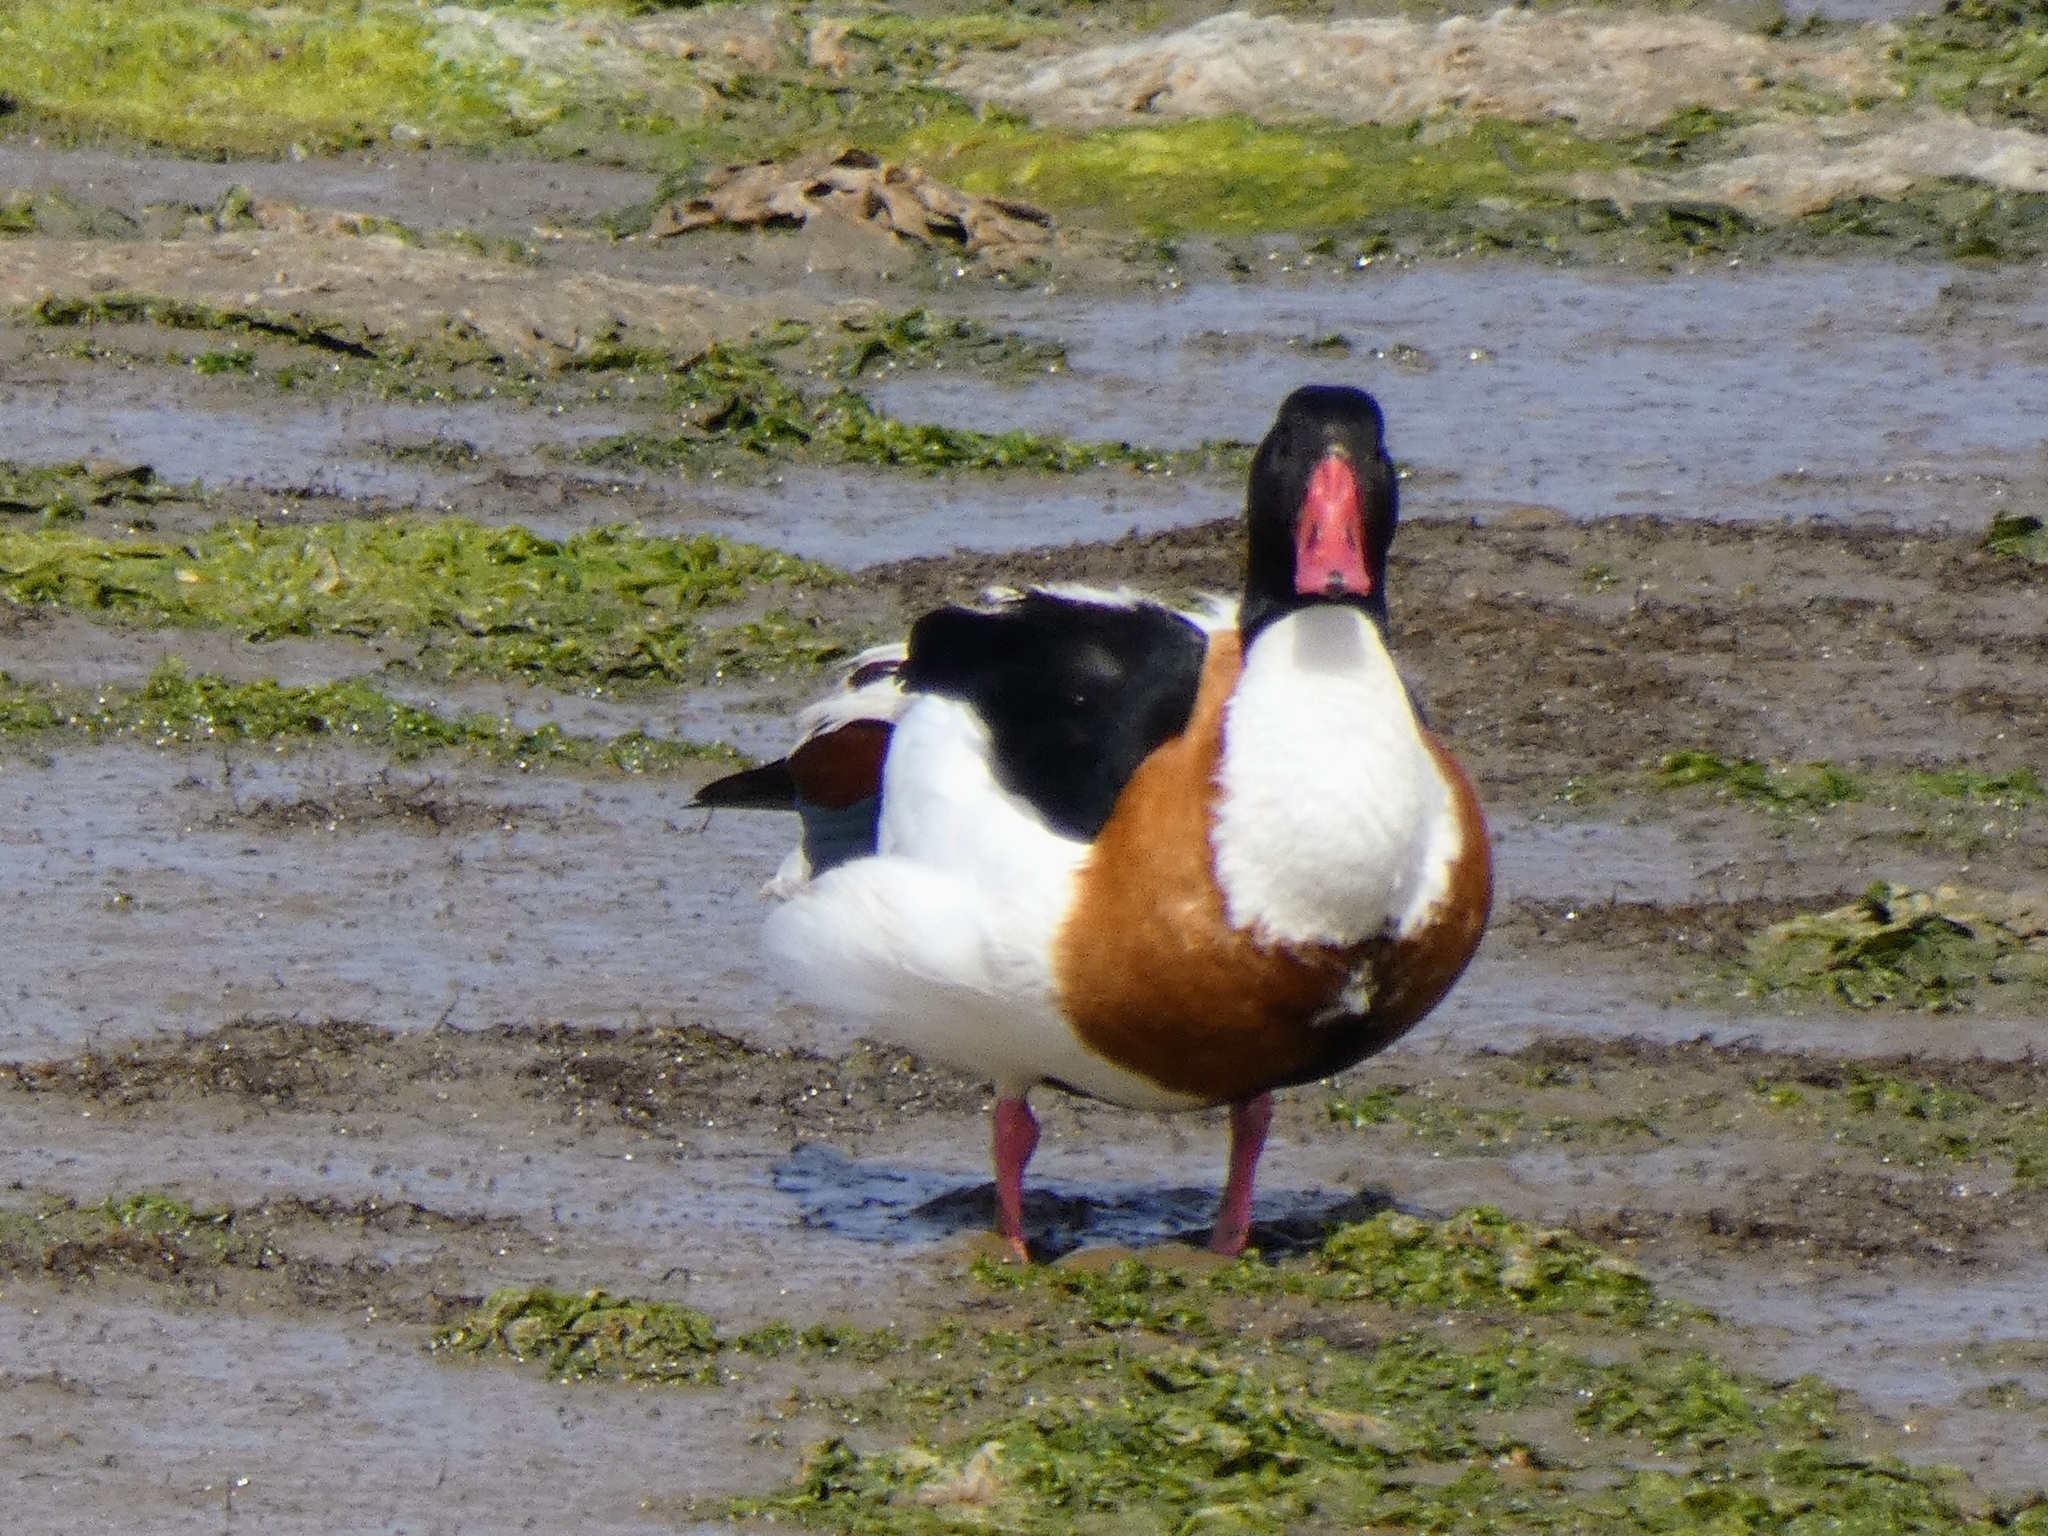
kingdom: Animalia
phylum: Chordata
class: Aves
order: Anseriformes
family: Anatidae
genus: Tadorna
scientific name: Tadorna tadorna
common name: Common shelduck
